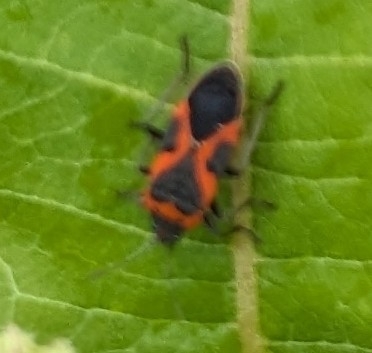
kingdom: Animalia
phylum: Arthropoda
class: Insecta
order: Hemiptera
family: Lygaeidae
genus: Lygaeus
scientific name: Lygaeus kalmii
